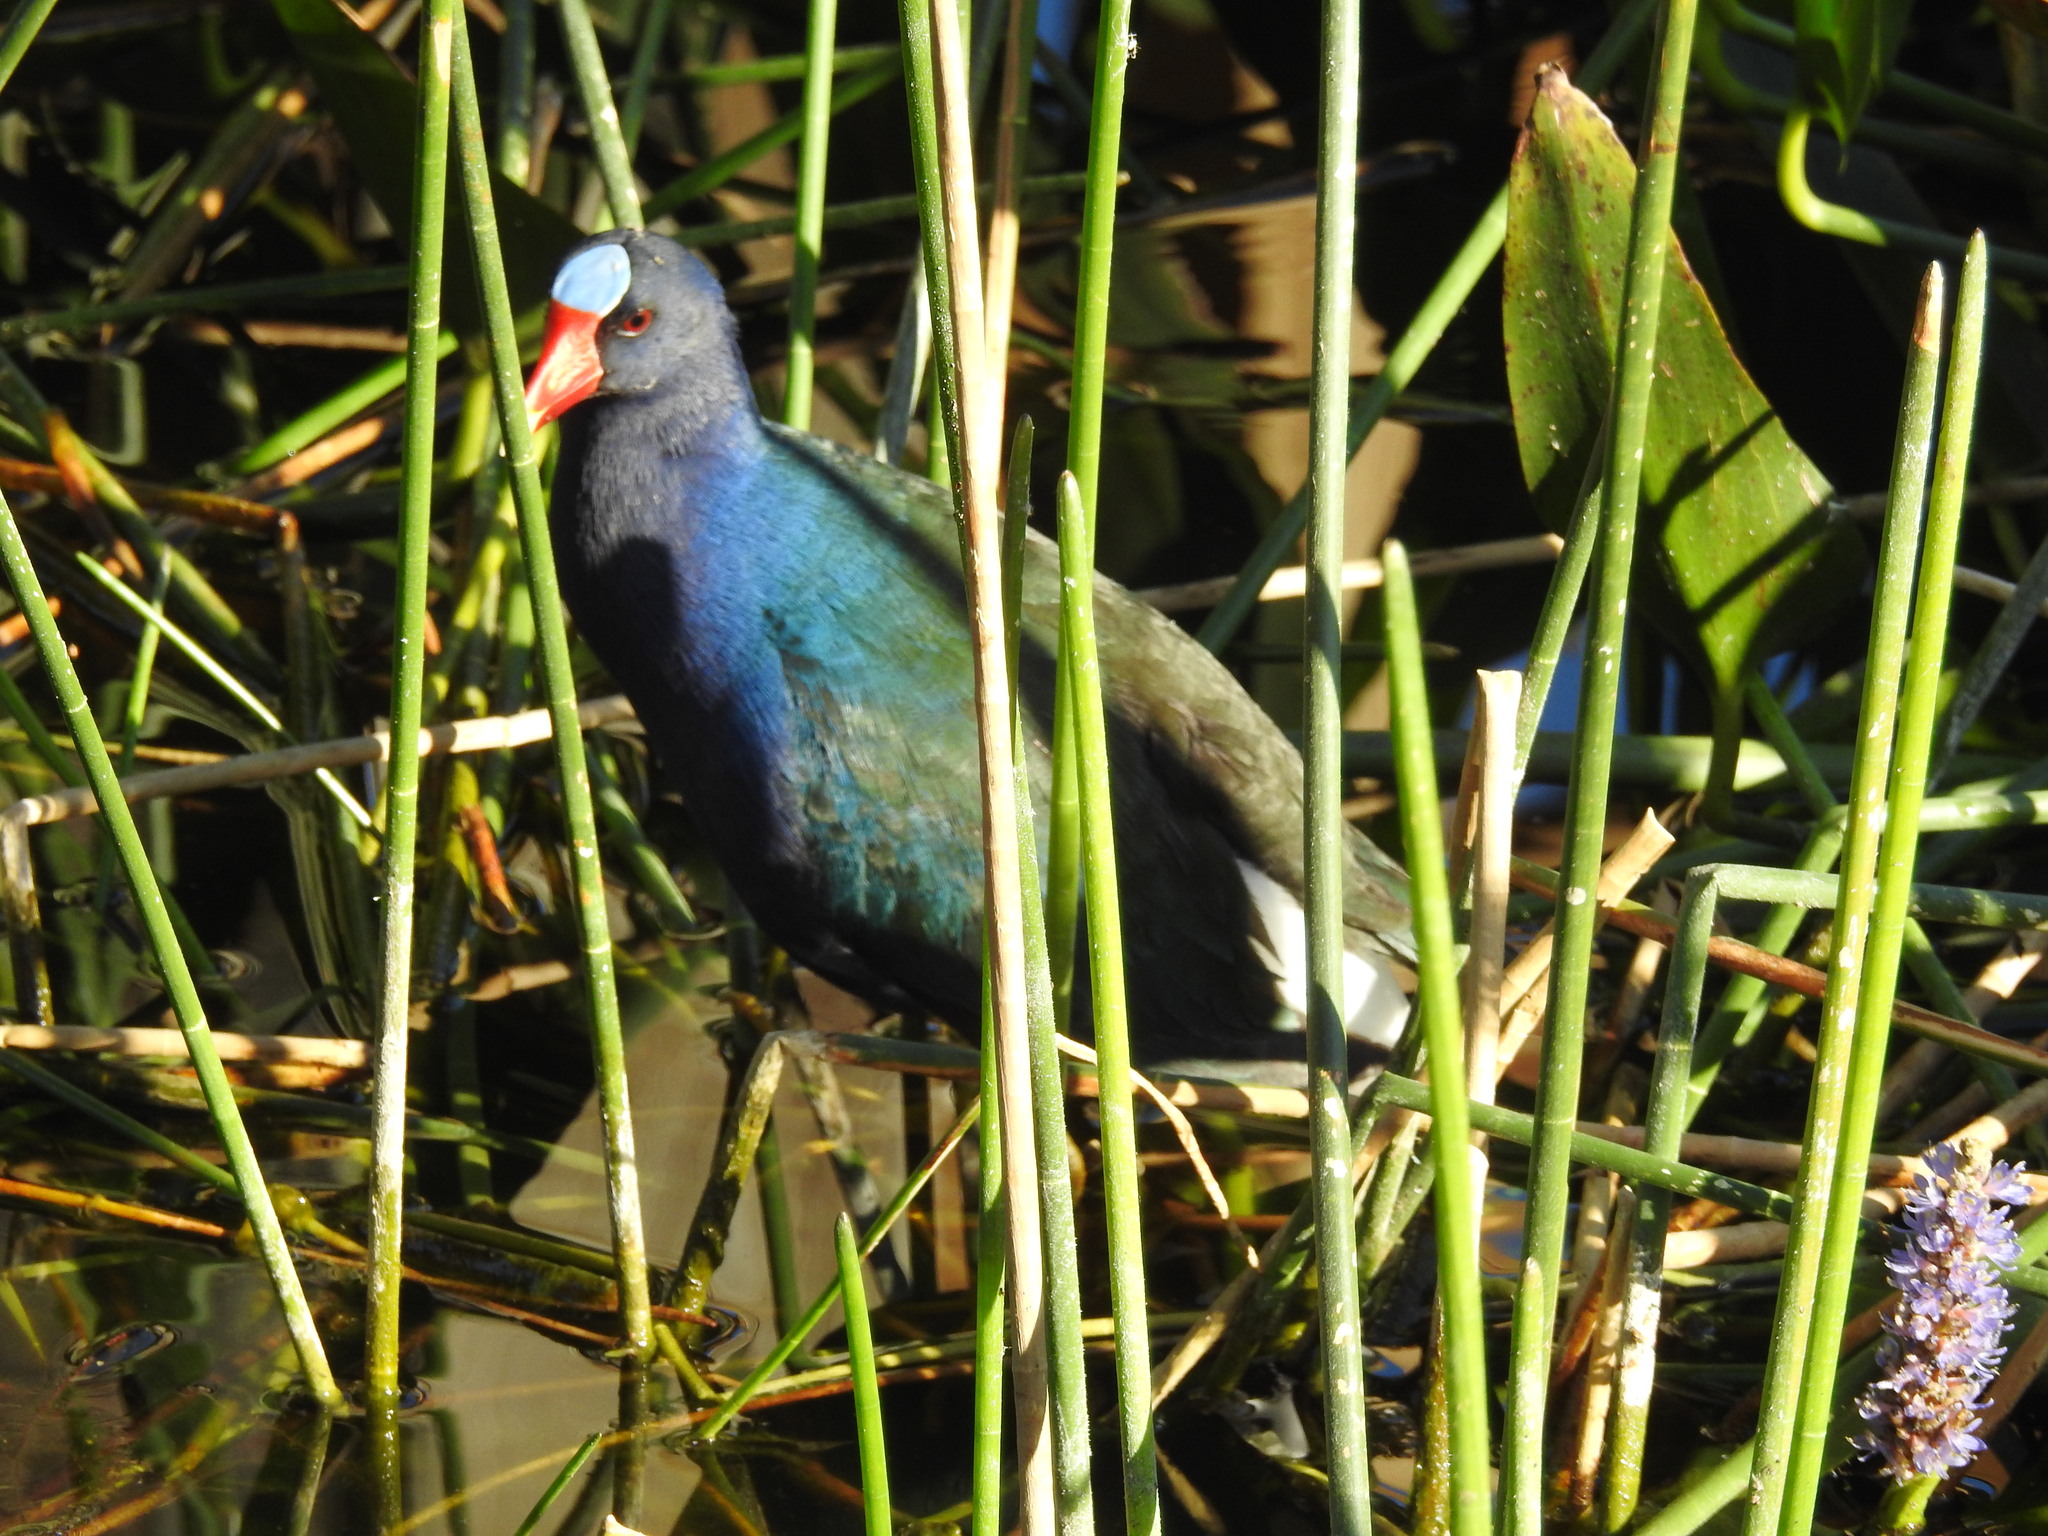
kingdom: Animalia
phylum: Chordata
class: Aves
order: Gruiformes
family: Rallidae
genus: Porphyrio
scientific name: Porphyrio martinica
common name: Purple gallinule
